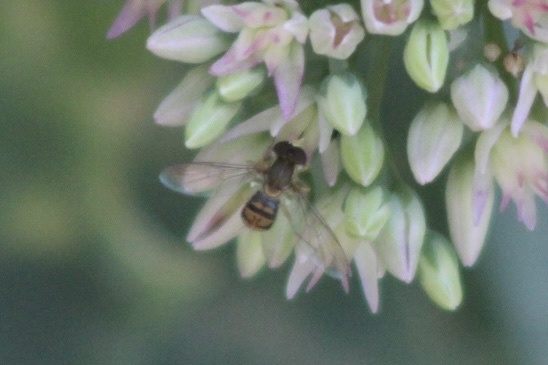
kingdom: Animalia
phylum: Arthropoda
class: Insecta
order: Diptera
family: Syrphidae
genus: Toxomerus
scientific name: Toxomerus marginatus
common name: Syrphid fly
